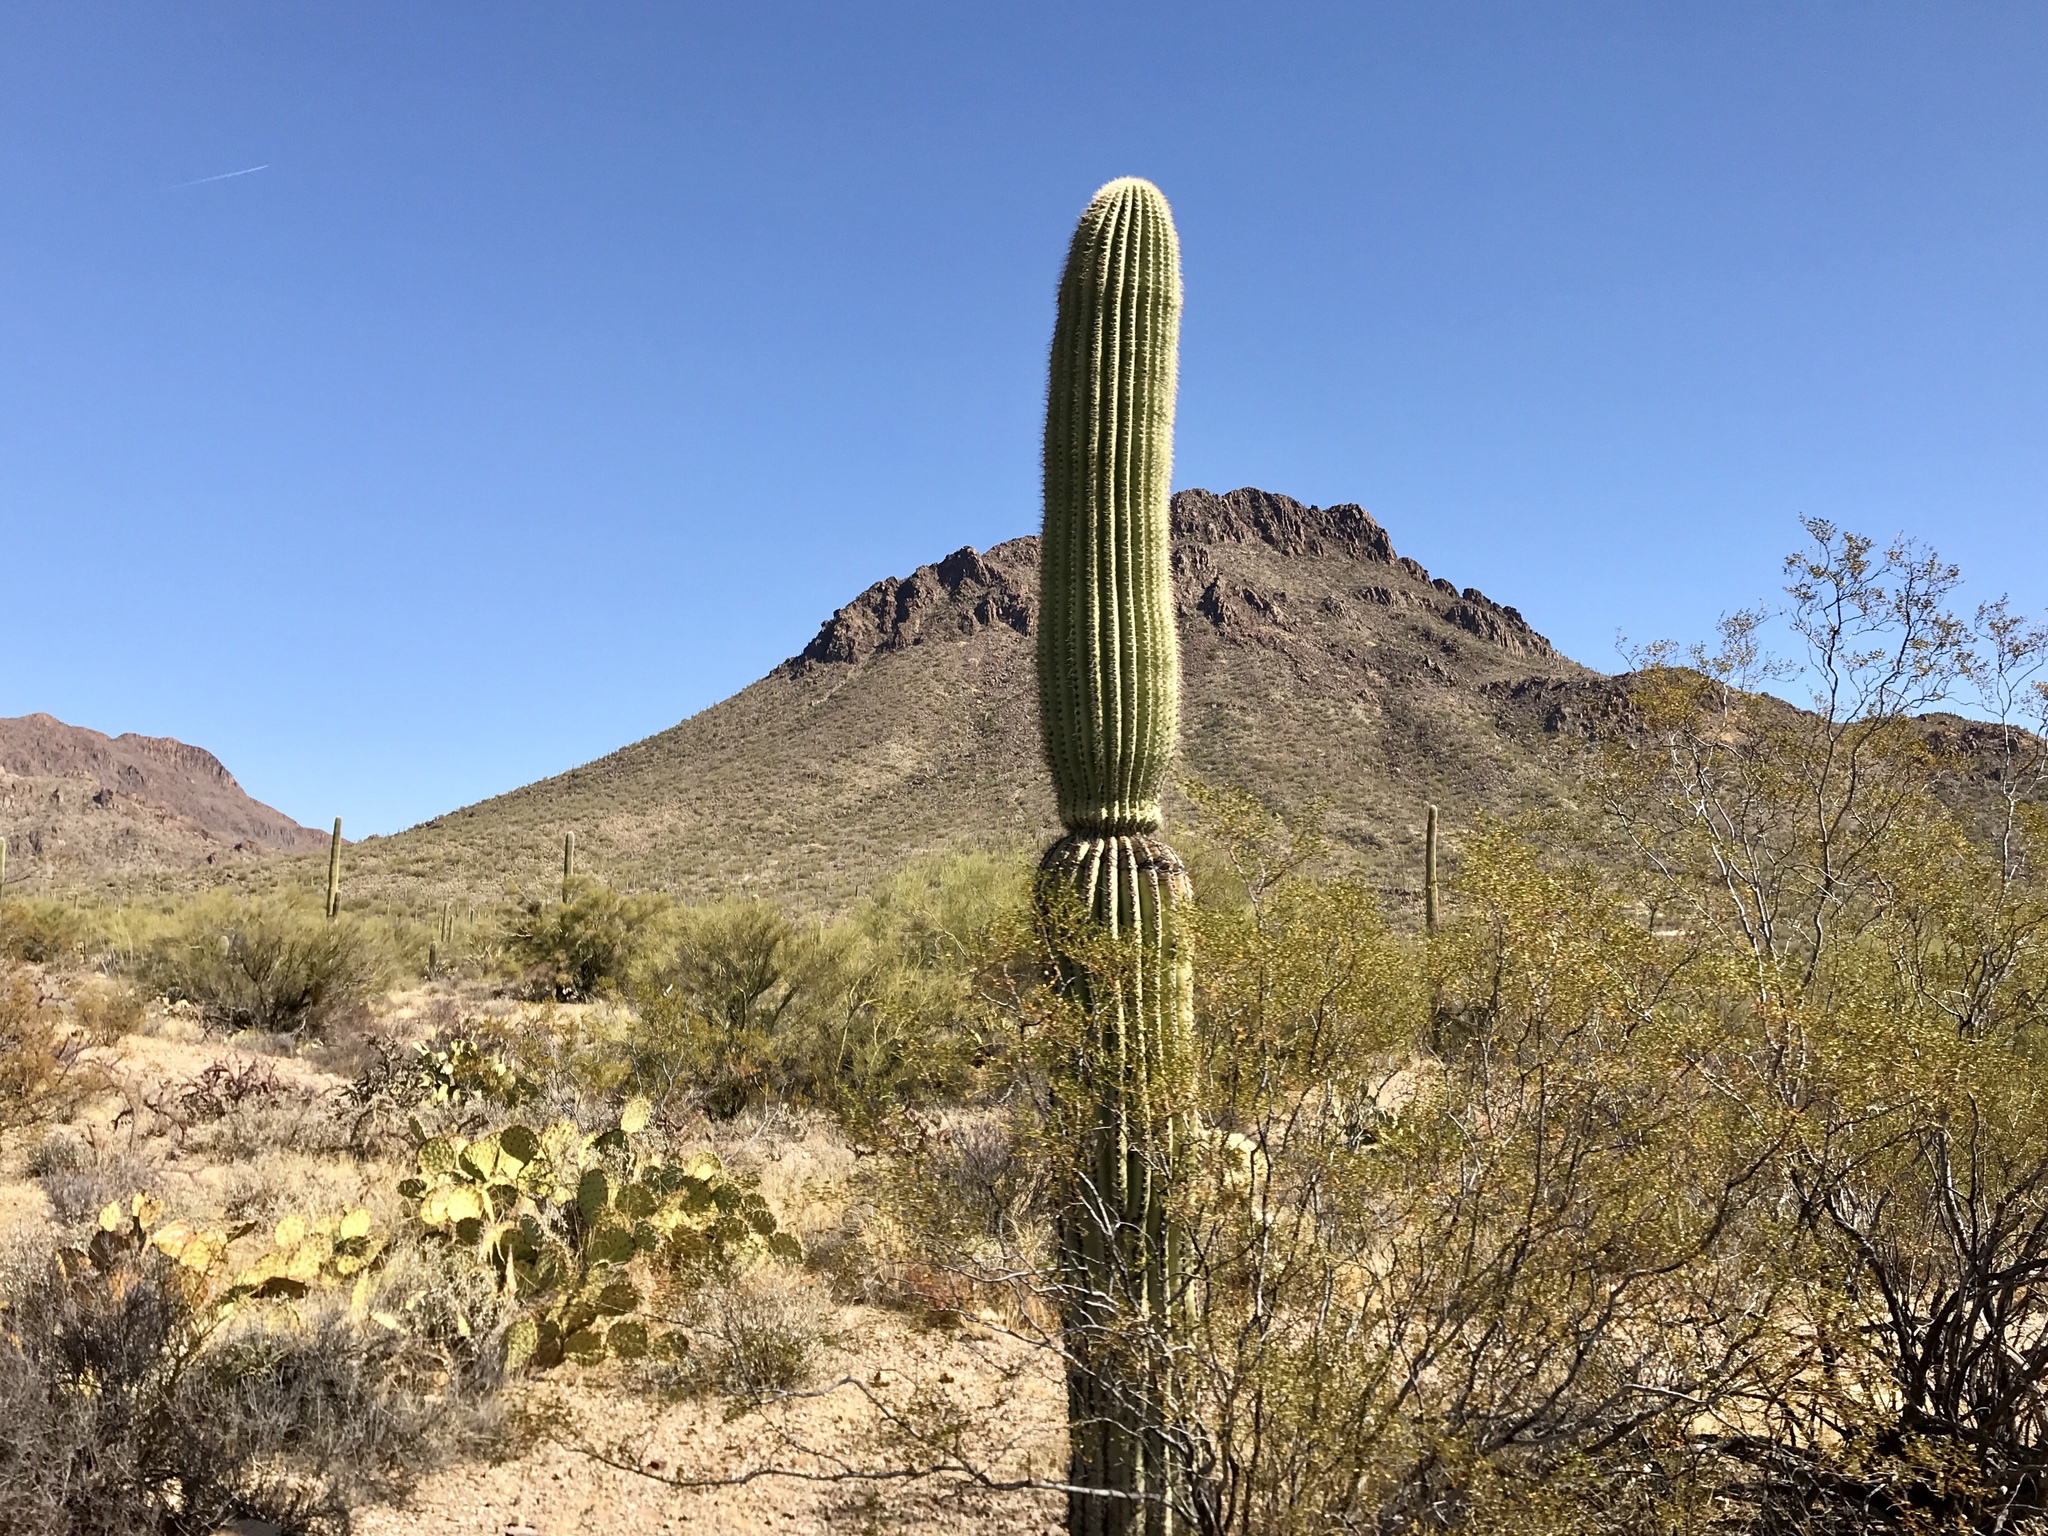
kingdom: Plantae
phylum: Tracheophyta
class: Magnoliopsida
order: Caryophyllales
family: Cactaceae
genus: Carnegiea
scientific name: Carnegiea gigantea
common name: Saguaro
